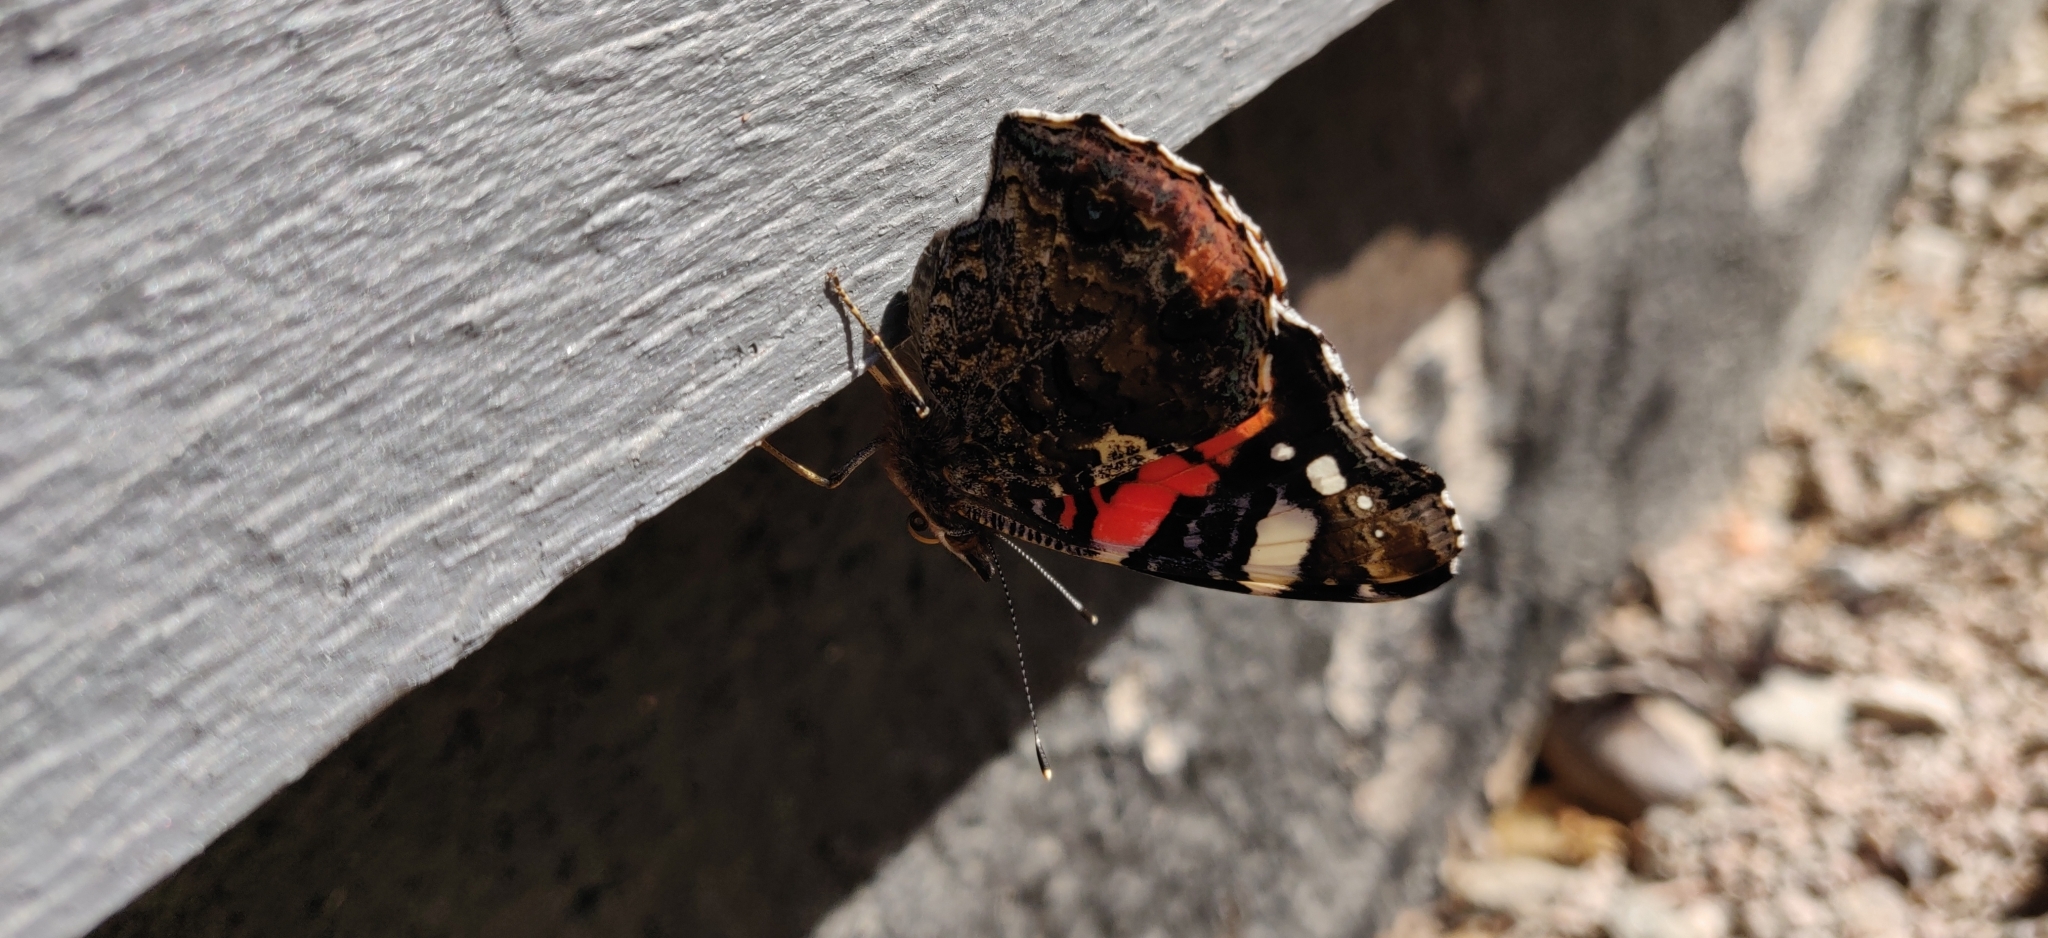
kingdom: Animalia
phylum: Arthropoda
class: Insecta
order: Lepidoptera
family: Nymphalidae
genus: Vanessa
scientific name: Vanessa atalanta
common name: Red admiral
